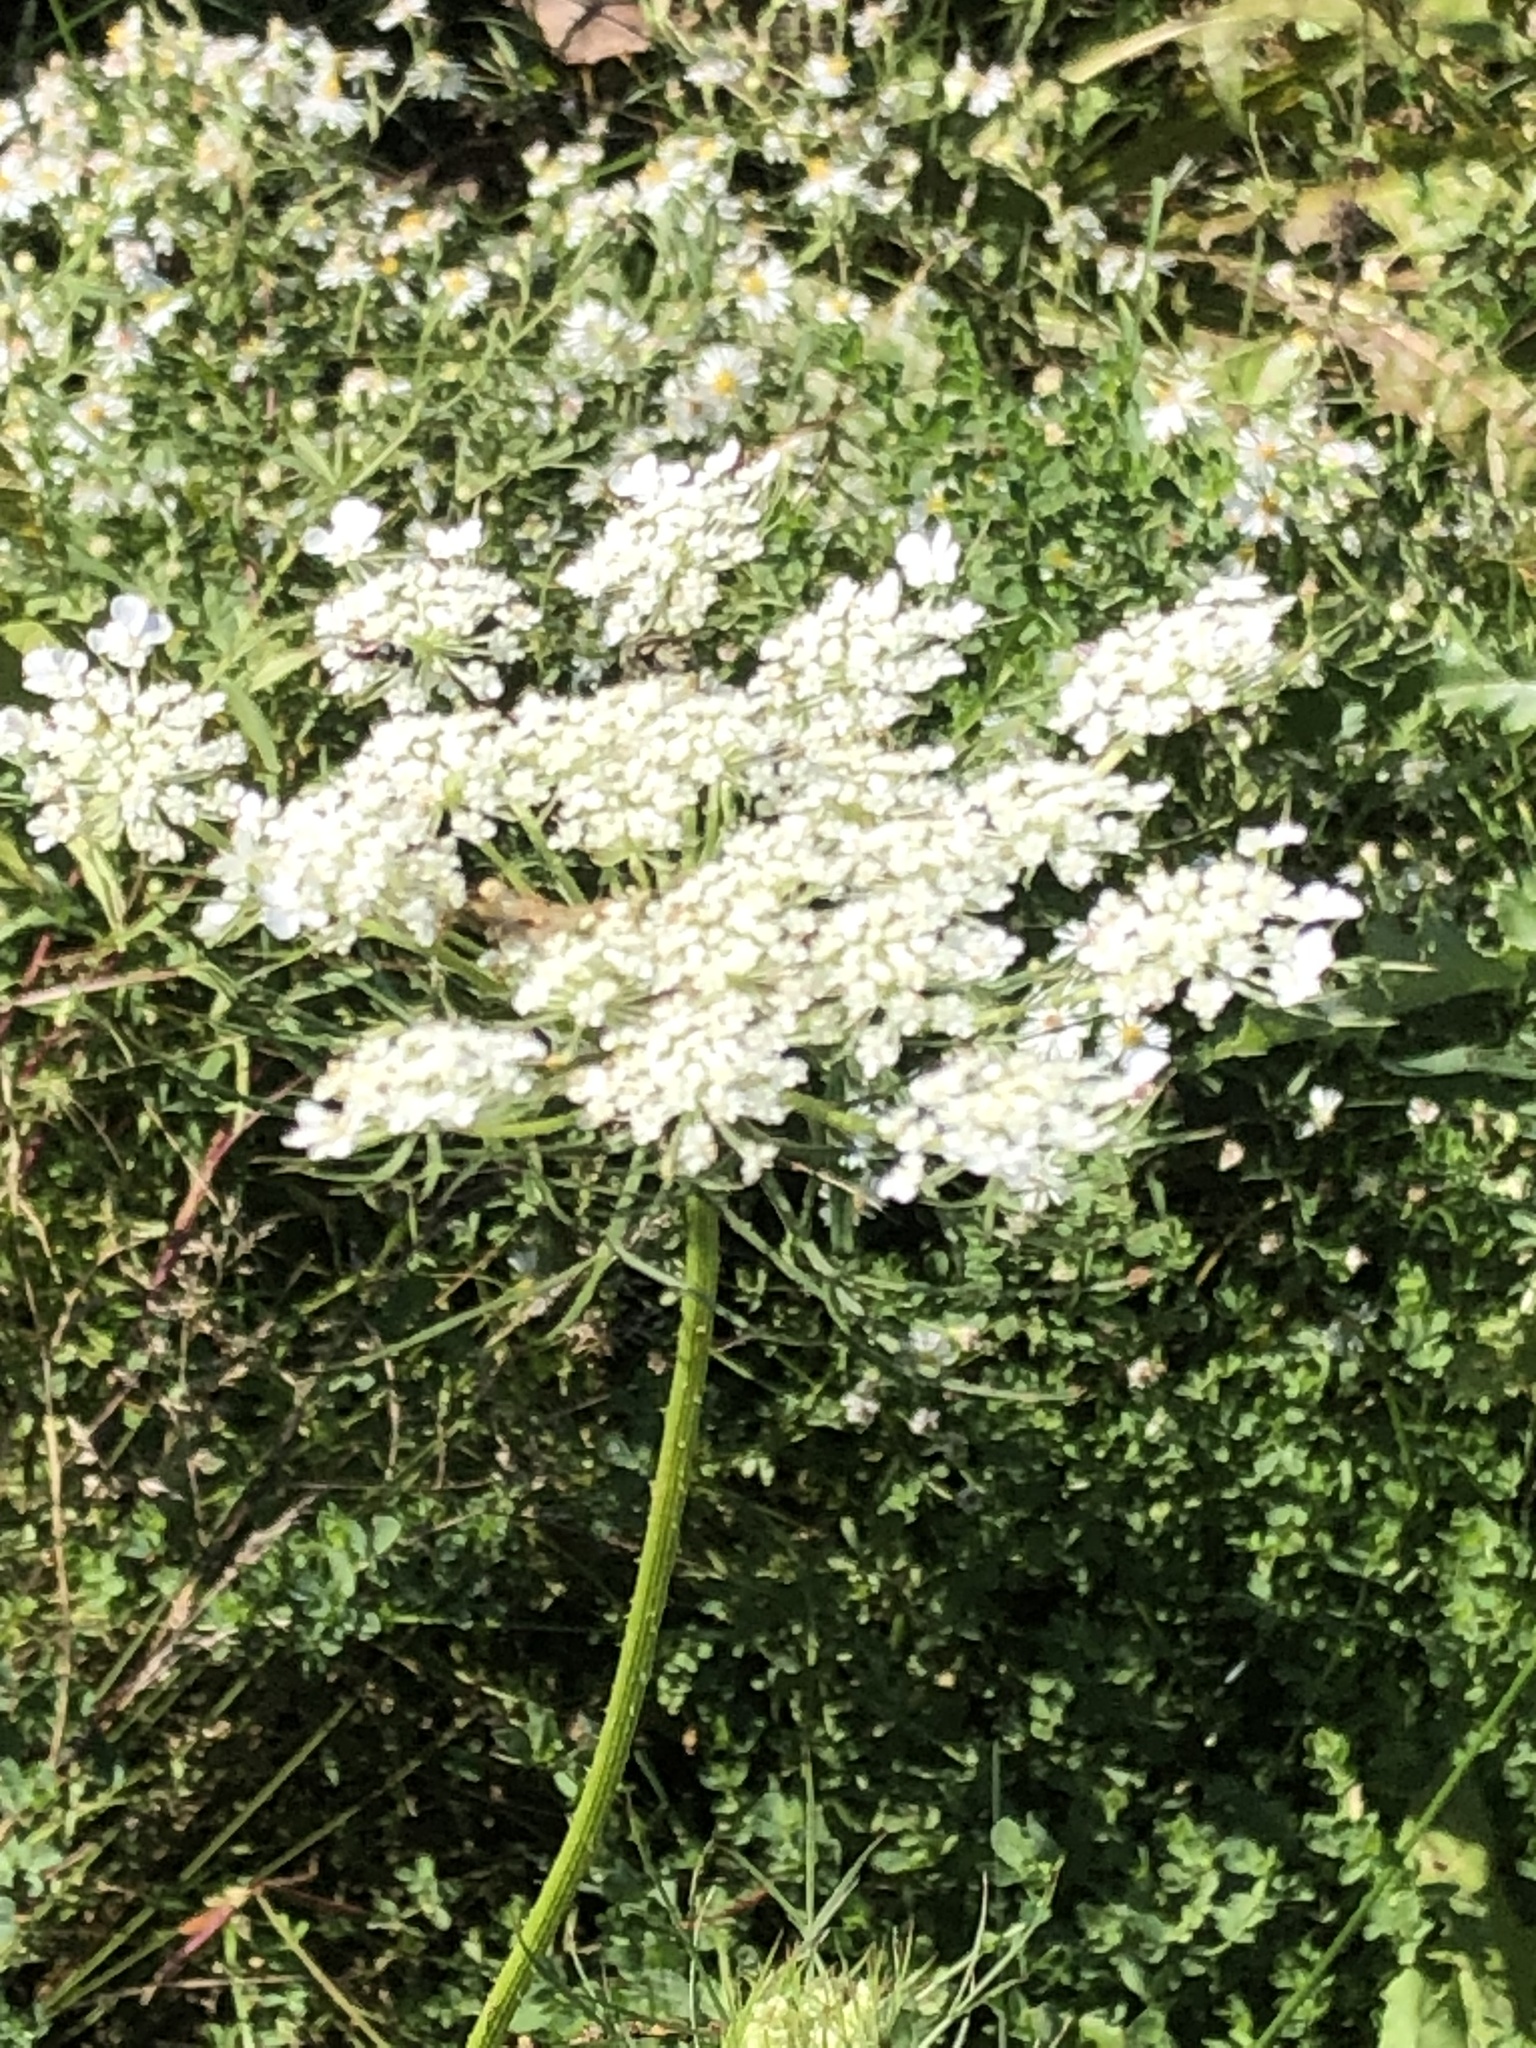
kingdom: Plantae
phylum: Tracheophyta
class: Magnoliopsida
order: Apiales
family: Apiaceae
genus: Daucus
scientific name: Daucus carota
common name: Wild carrot
